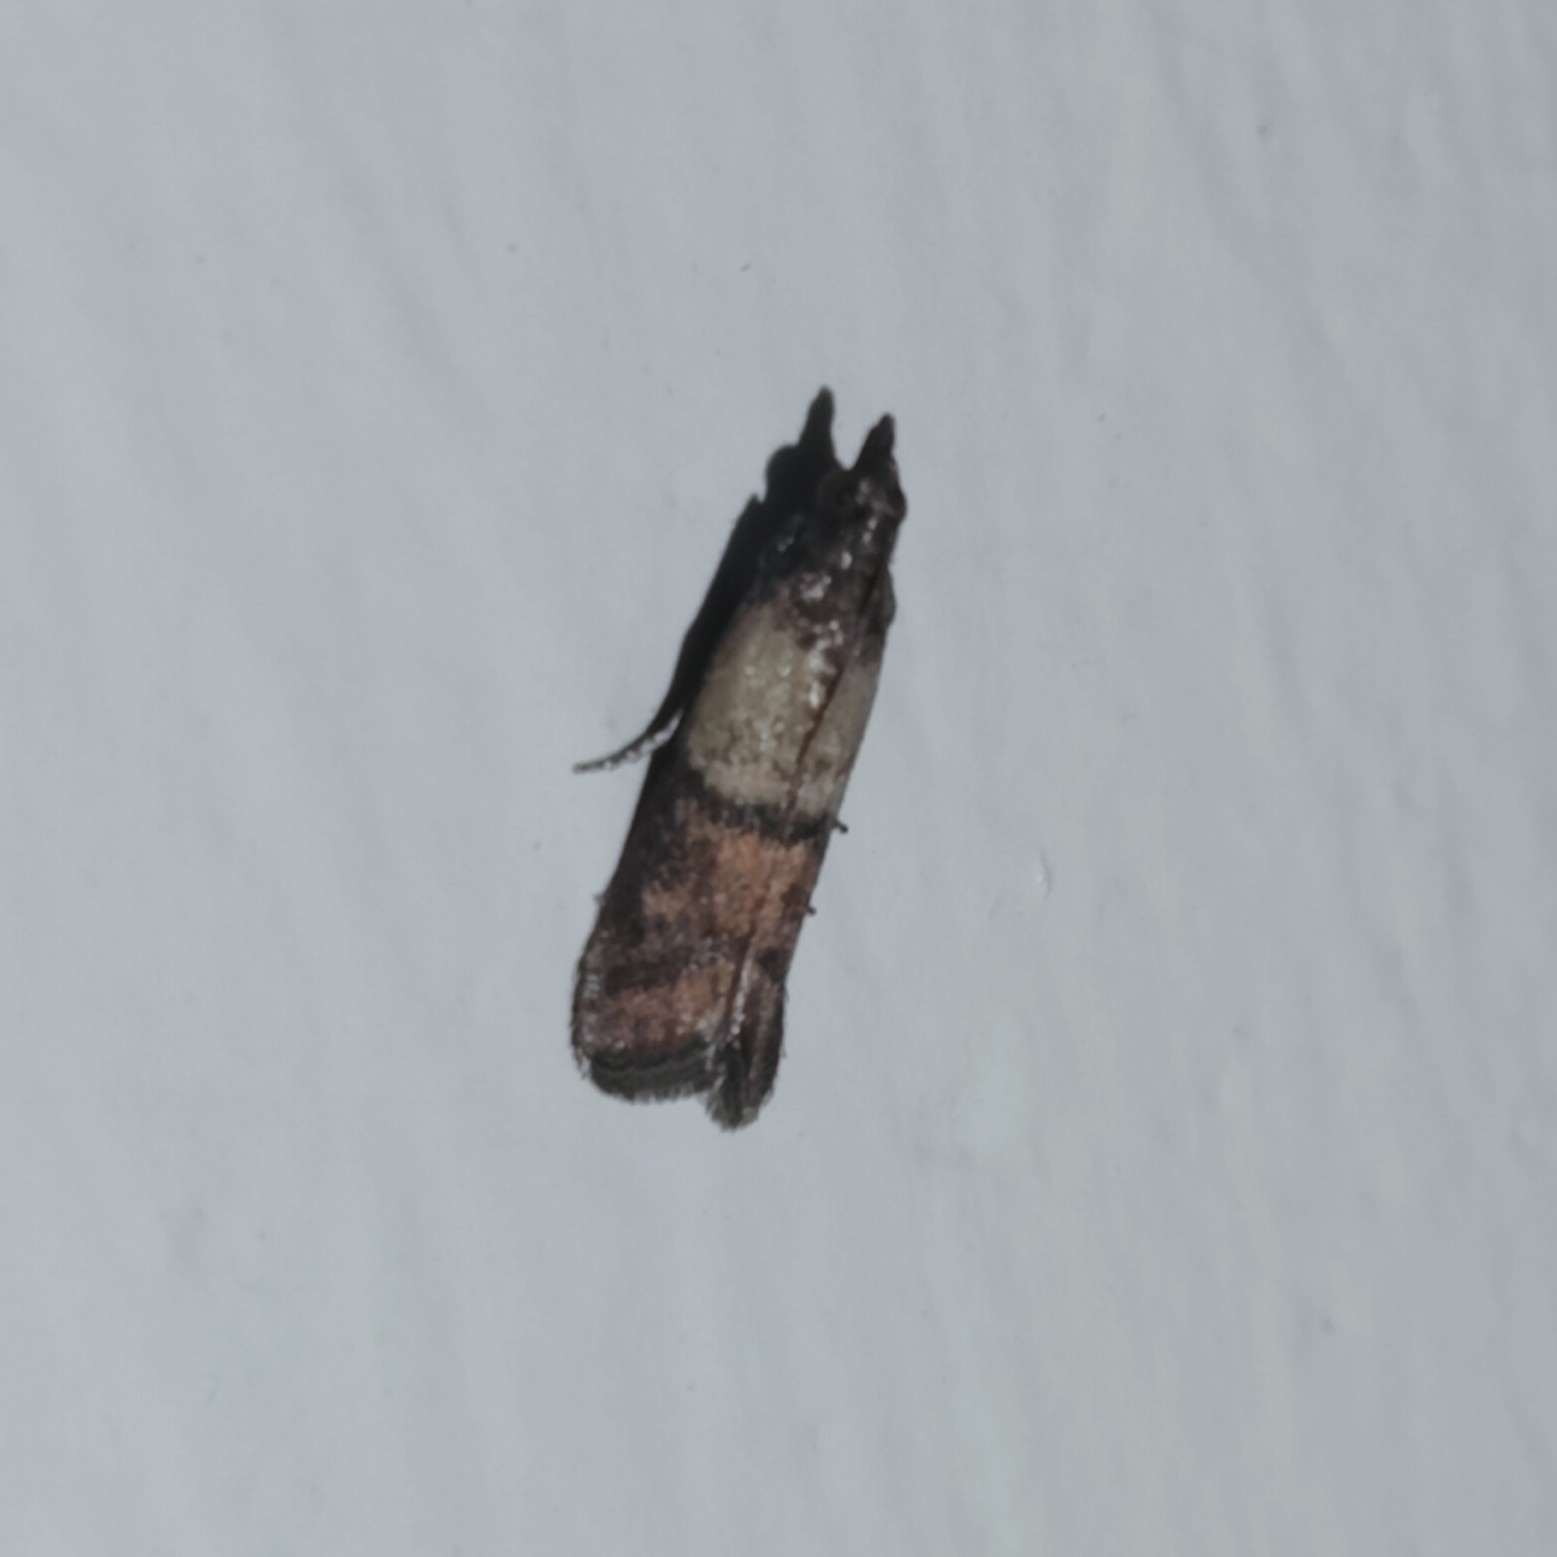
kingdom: Animalia
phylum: Arthropoda
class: Insecta
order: Lepidoptera
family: Pyralidae
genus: Plodia
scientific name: Plodia interpunctella
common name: Indian meal moth
